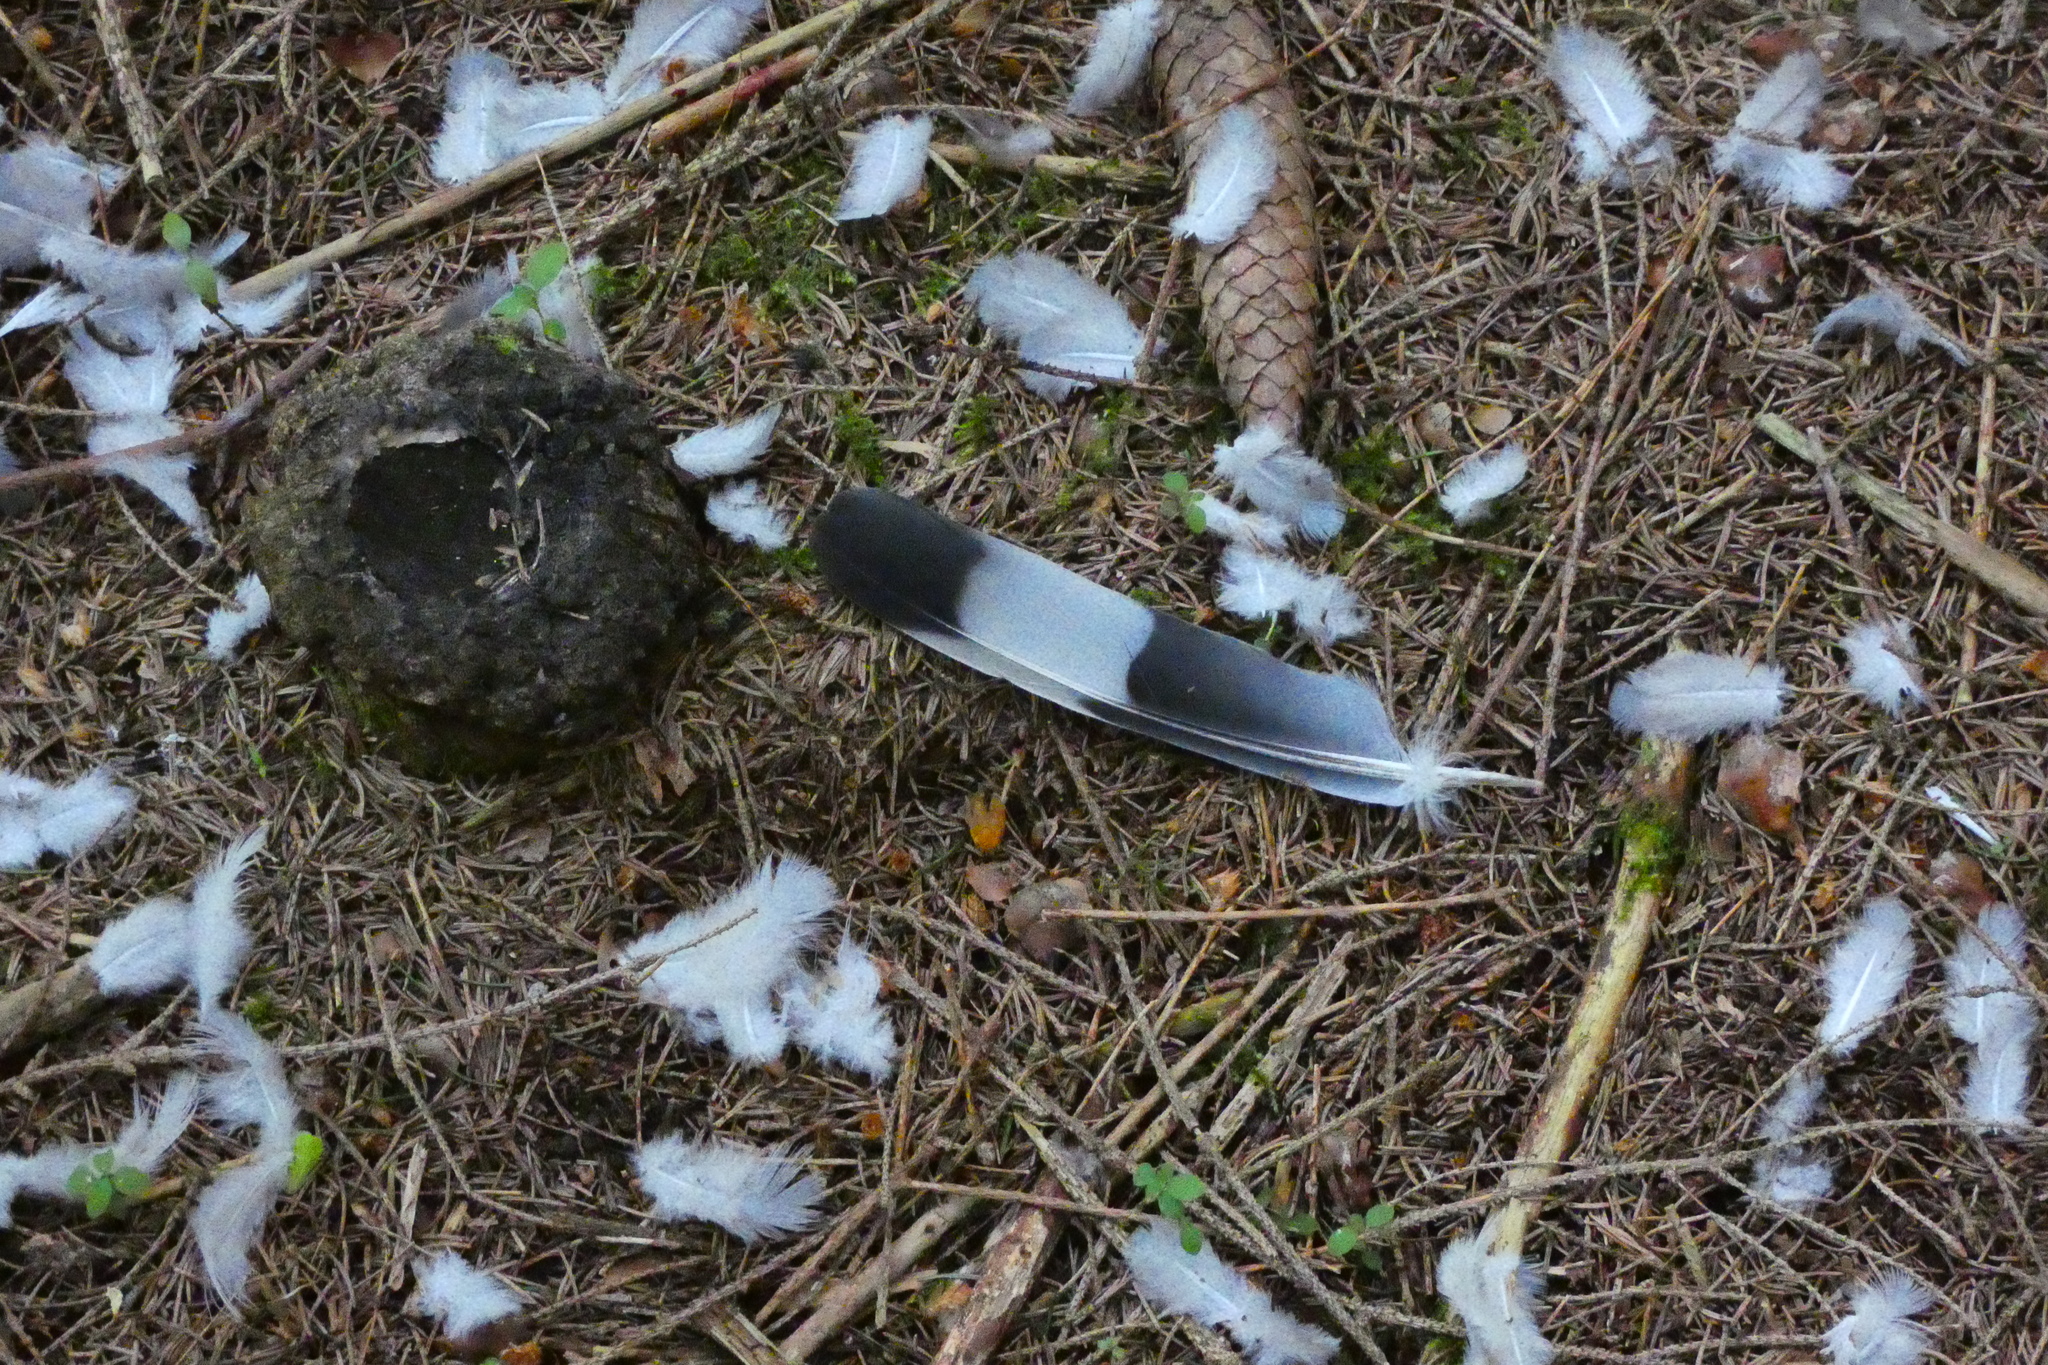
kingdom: Animalia
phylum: Chordata
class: Aves
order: Columbiformes
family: Columbidae
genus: Columba
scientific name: Columba palumbus
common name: Common wood pigeon
